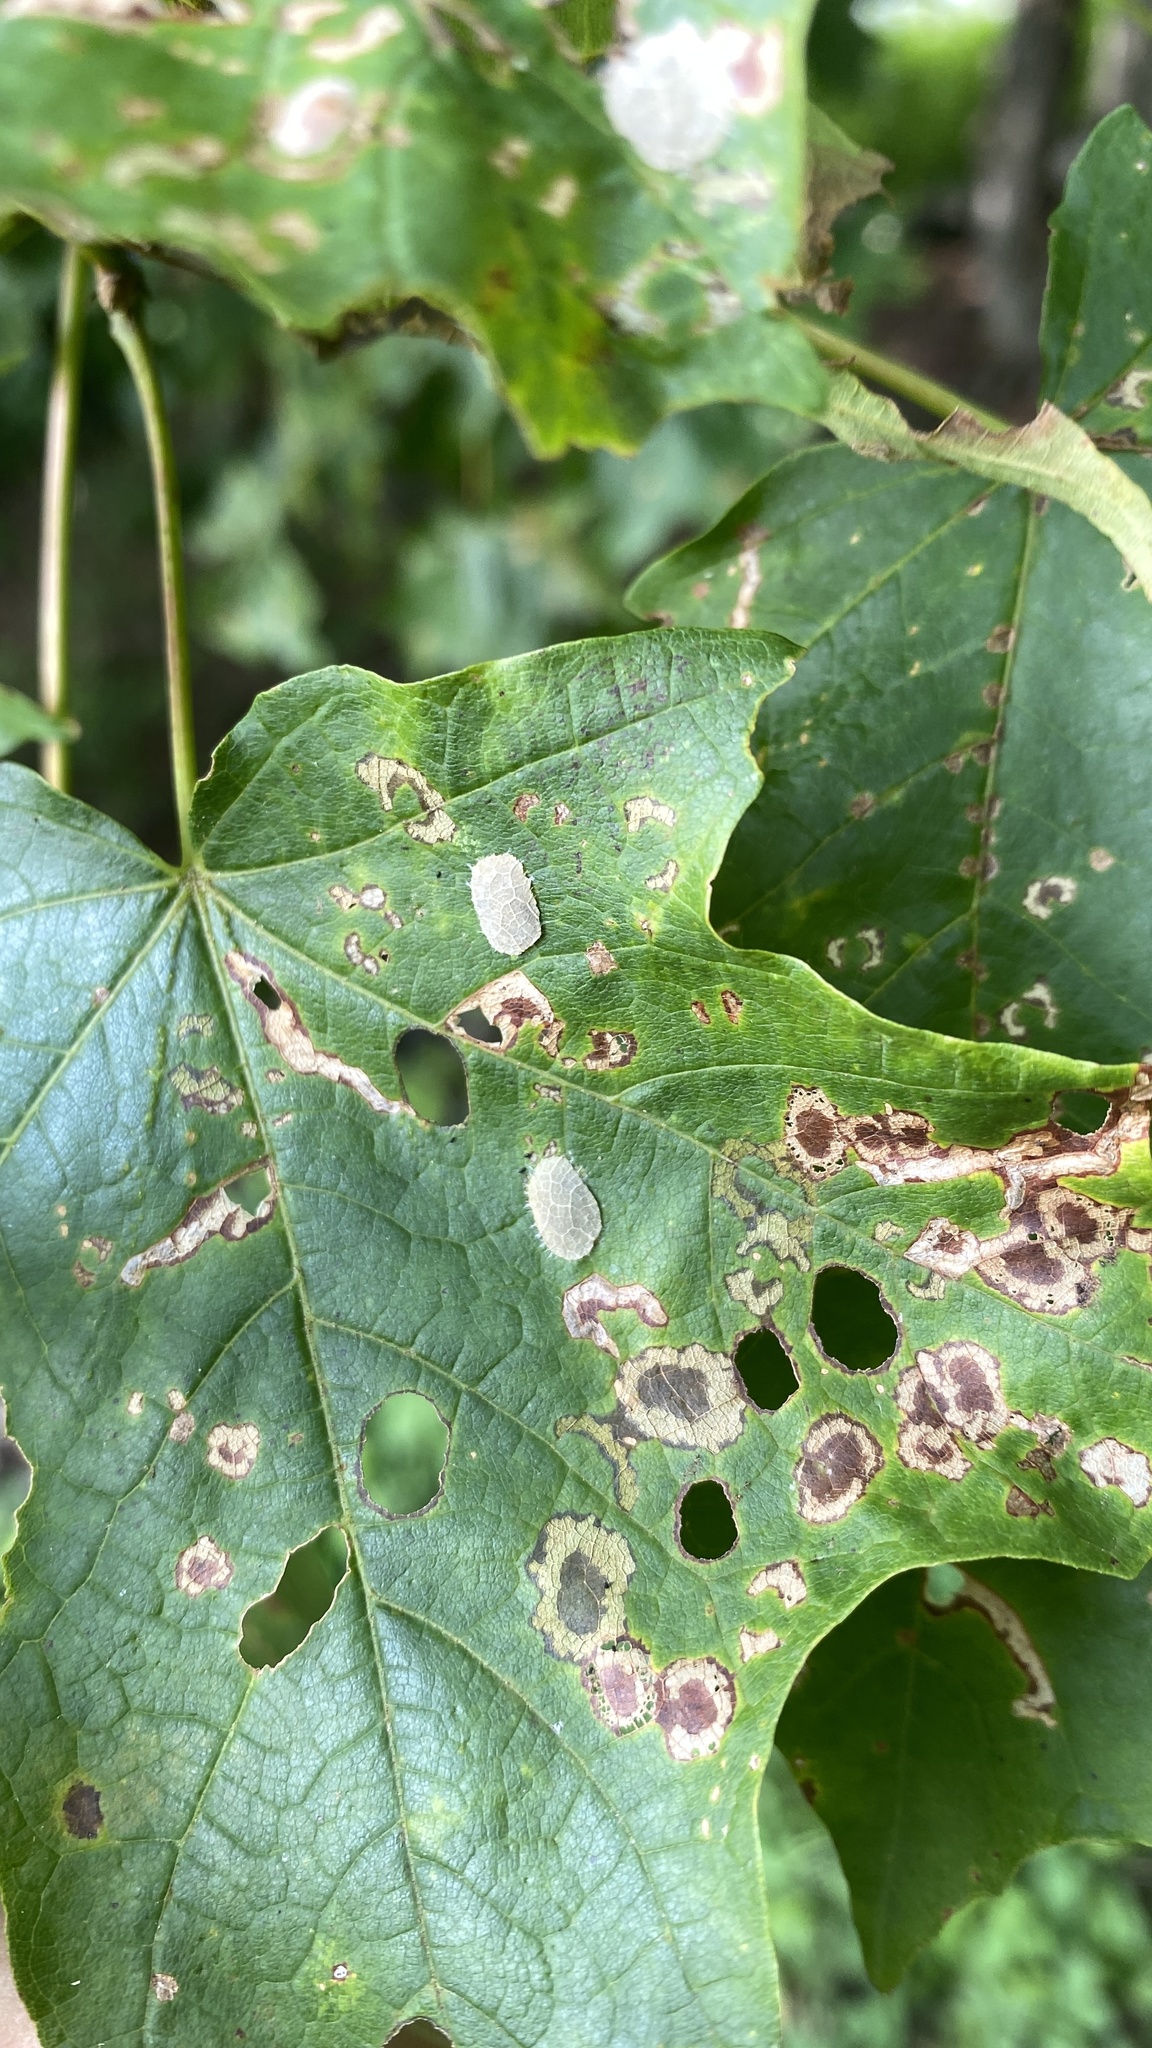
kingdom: Animalia
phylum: Arthropoda
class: Insecta
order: Lepidoptera
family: Incurvariidae
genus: Paraclemensia
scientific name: Paraclemensia acerifoliella
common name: Maple leafcutter
